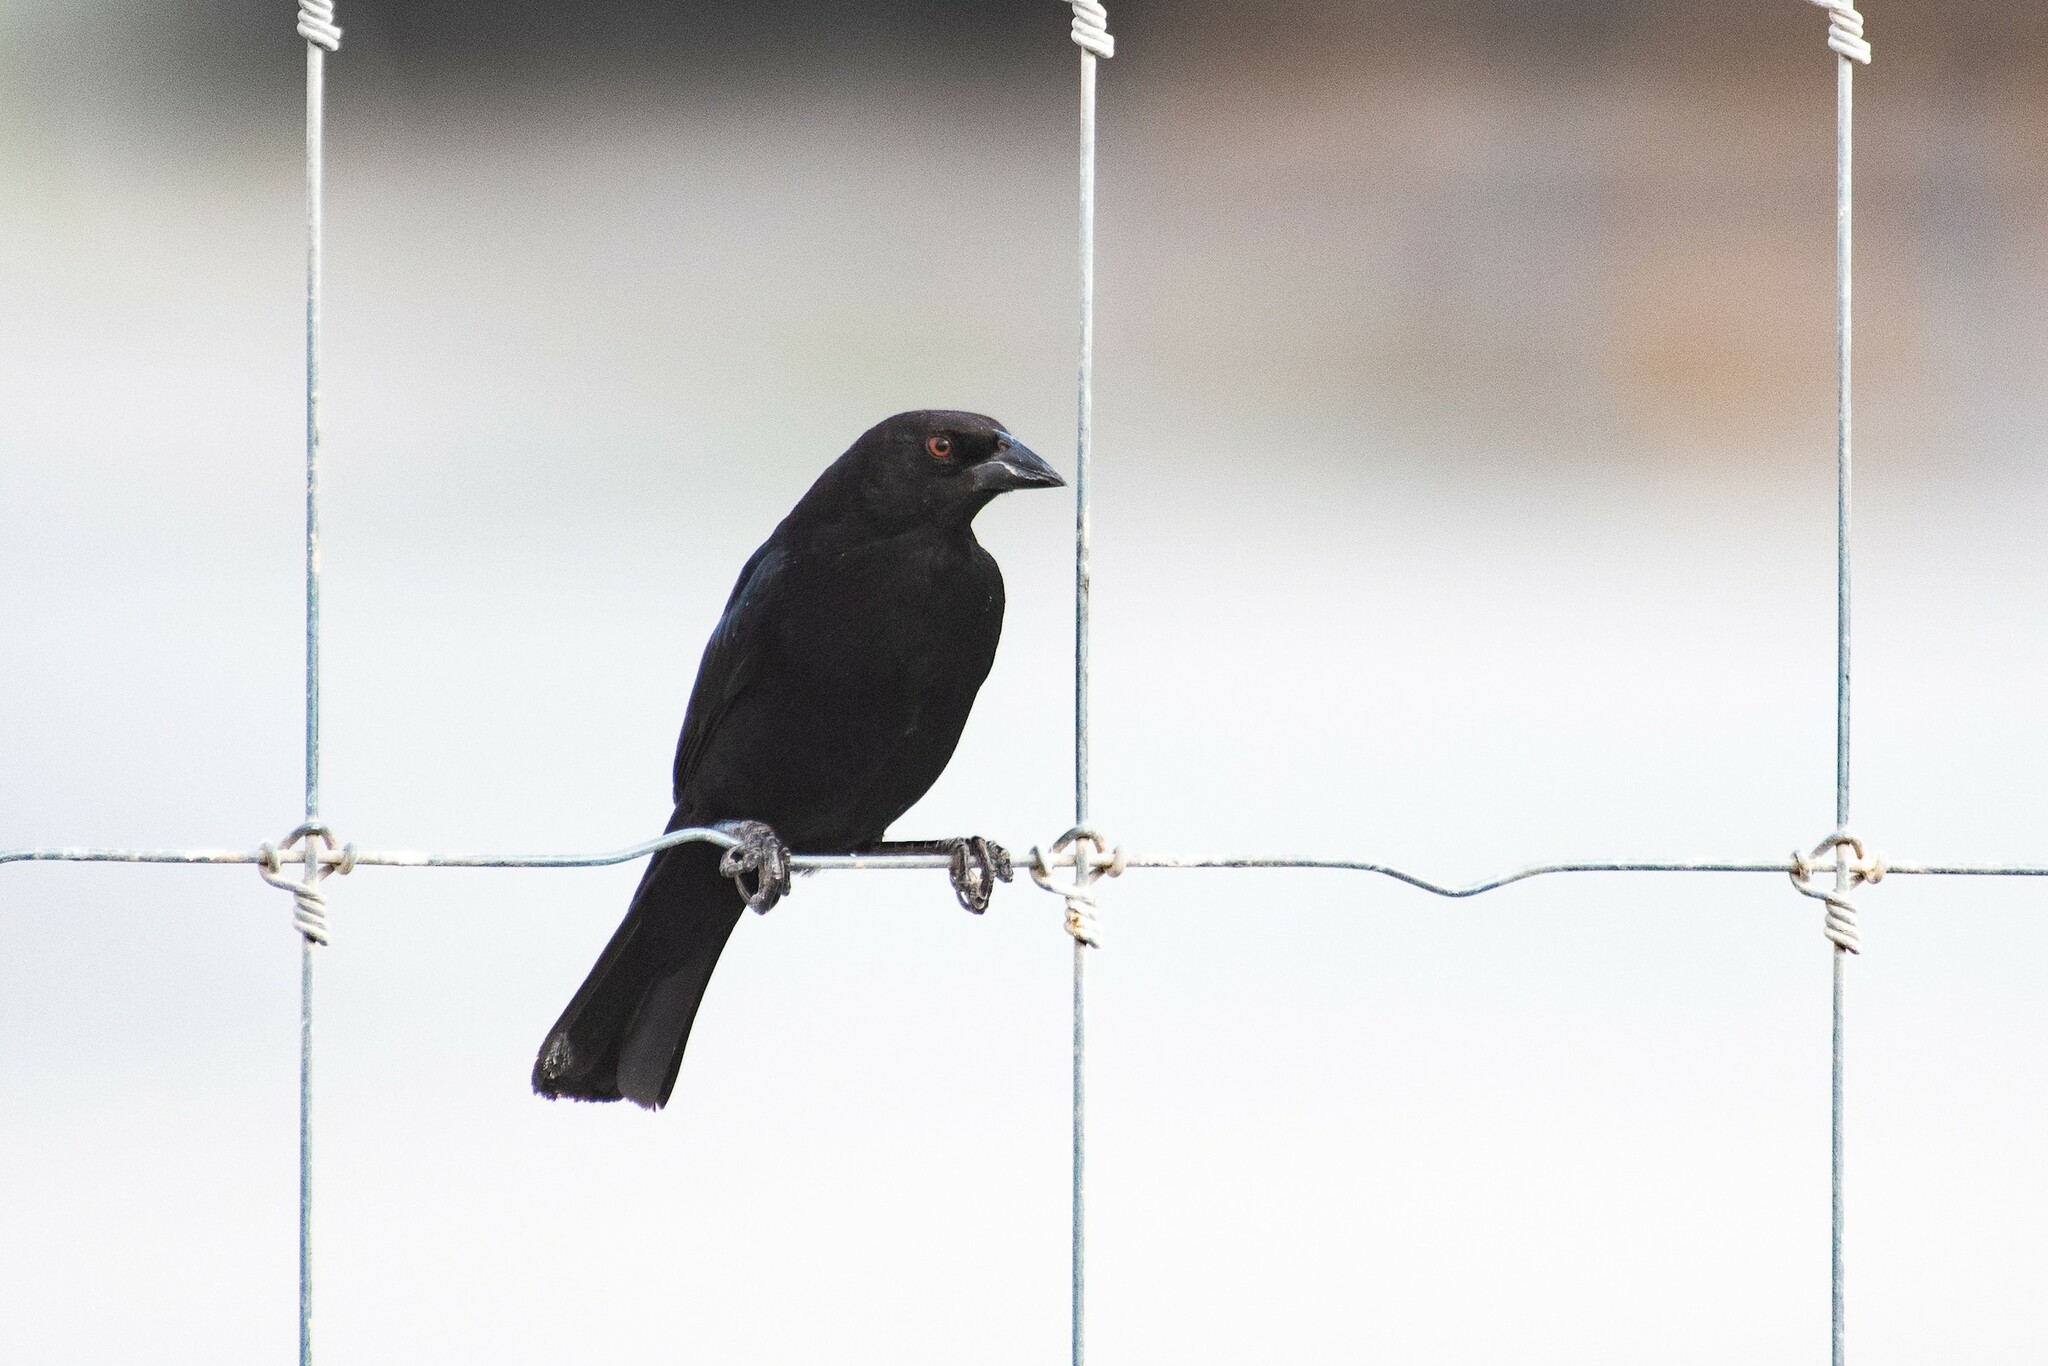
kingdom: Animalia
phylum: Chordata
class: Aves
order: Passeriformes
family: Icteridae
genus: Molothrus
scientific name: Molothrus aeneus
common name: Bronzed cowbird
